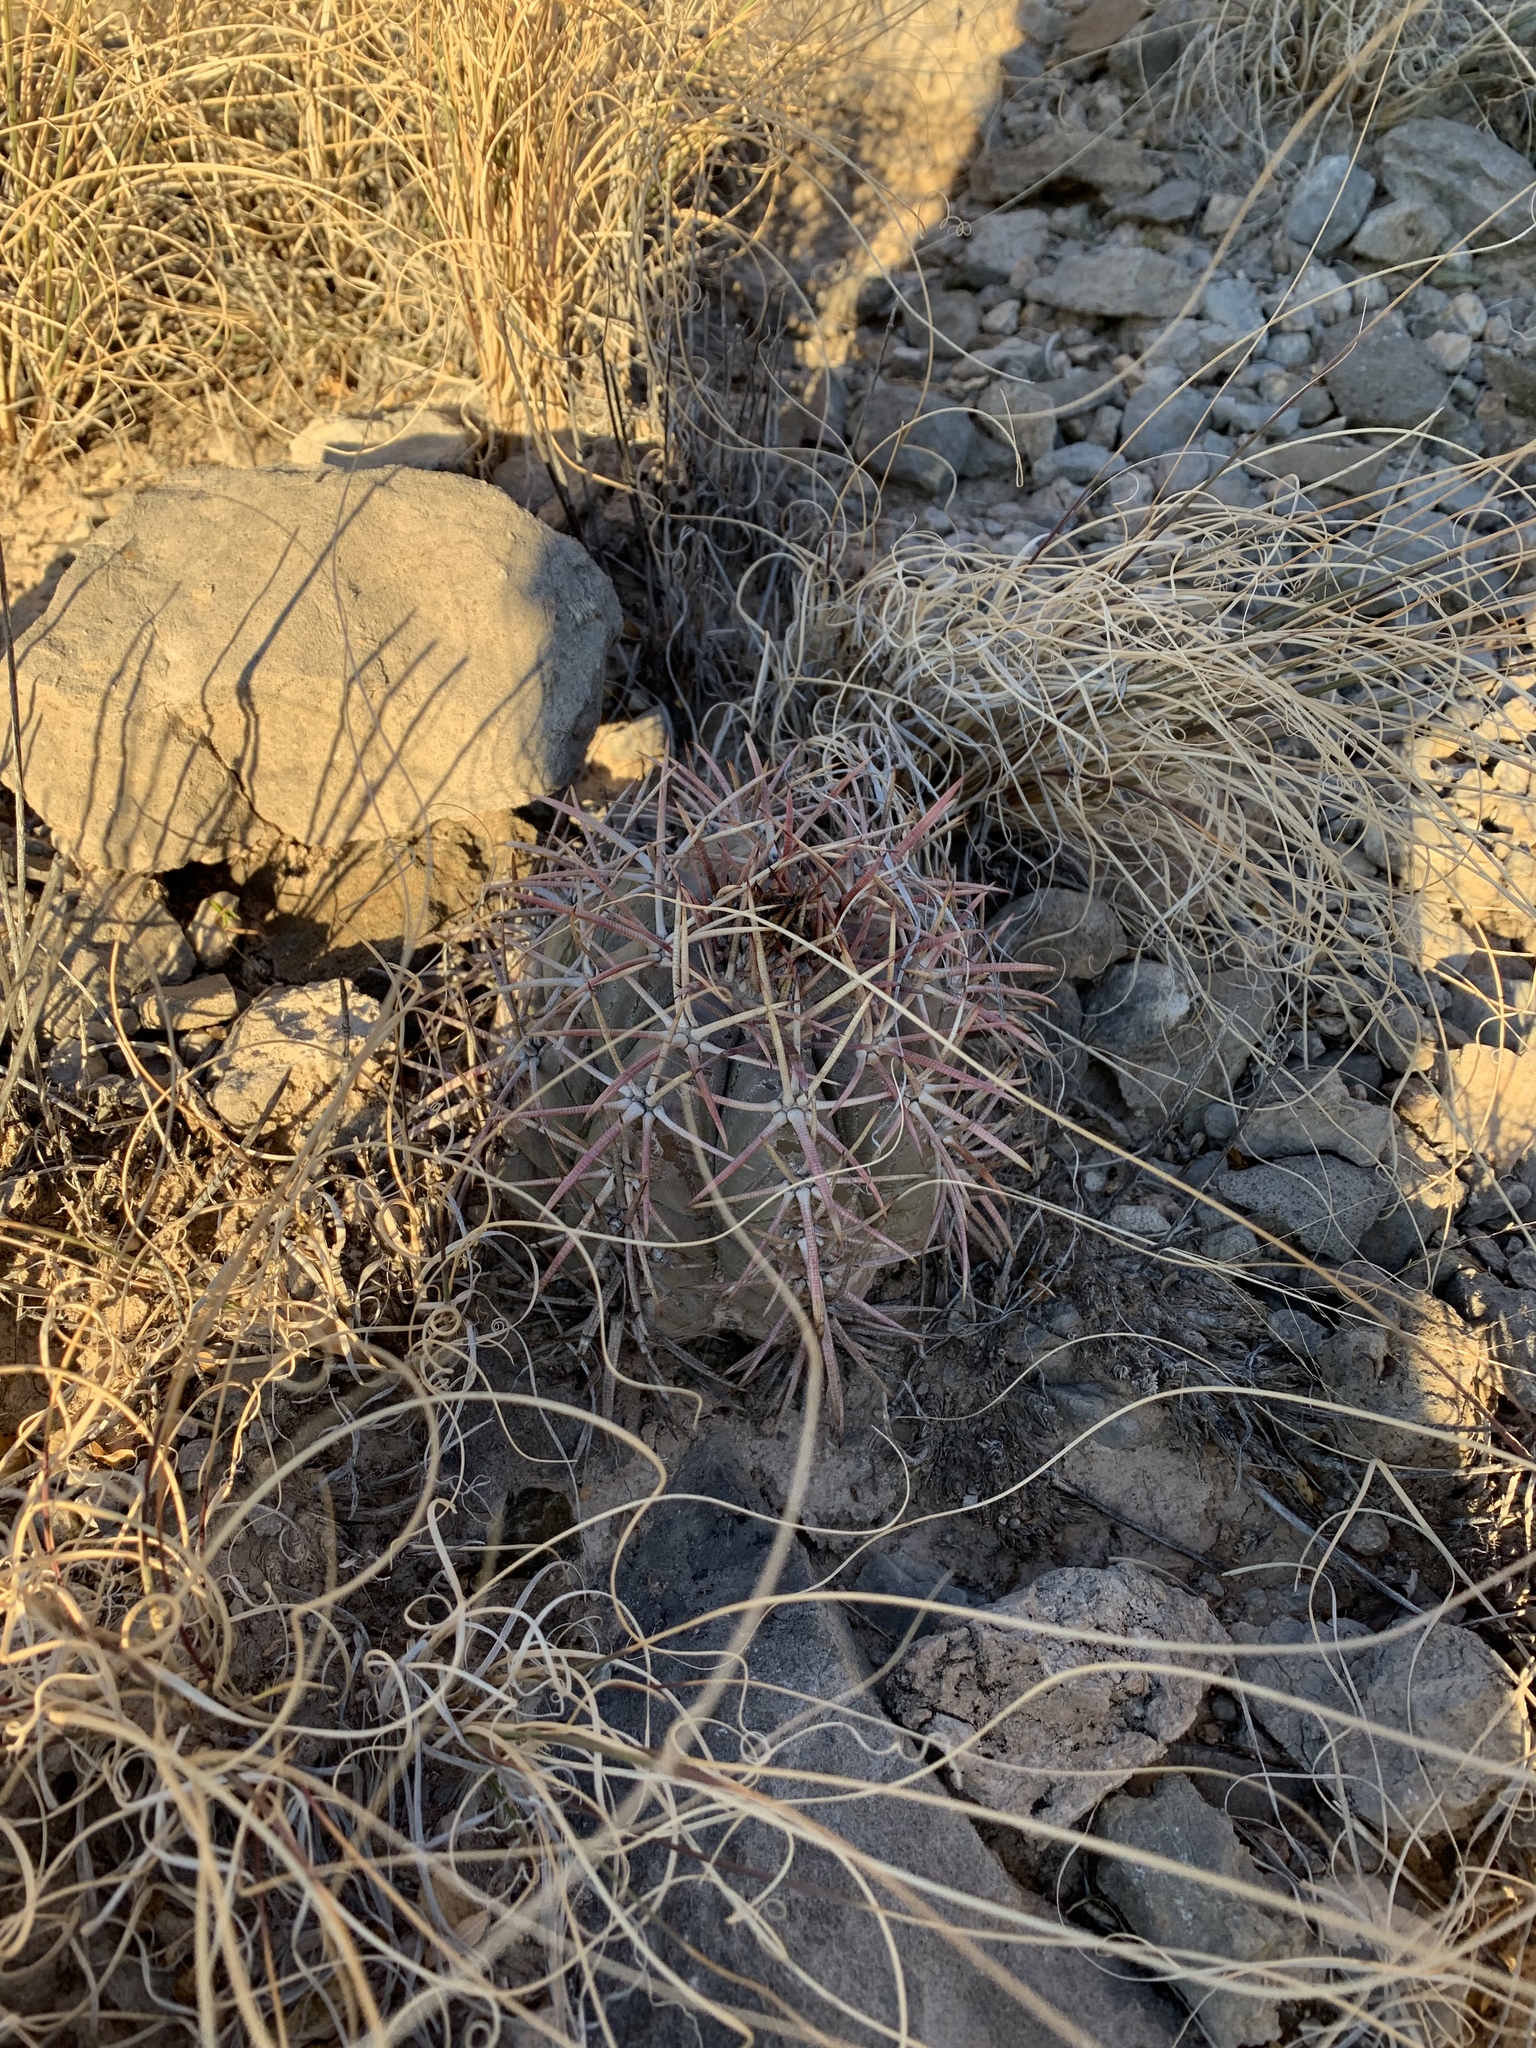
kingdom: Plantae
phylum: Tracheophyta
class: Magnoliopsida
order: Caryophyllales
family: Cactaceae
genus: Echinocactus
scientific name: Echinocactus horizonthalonius
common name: Devilshead
